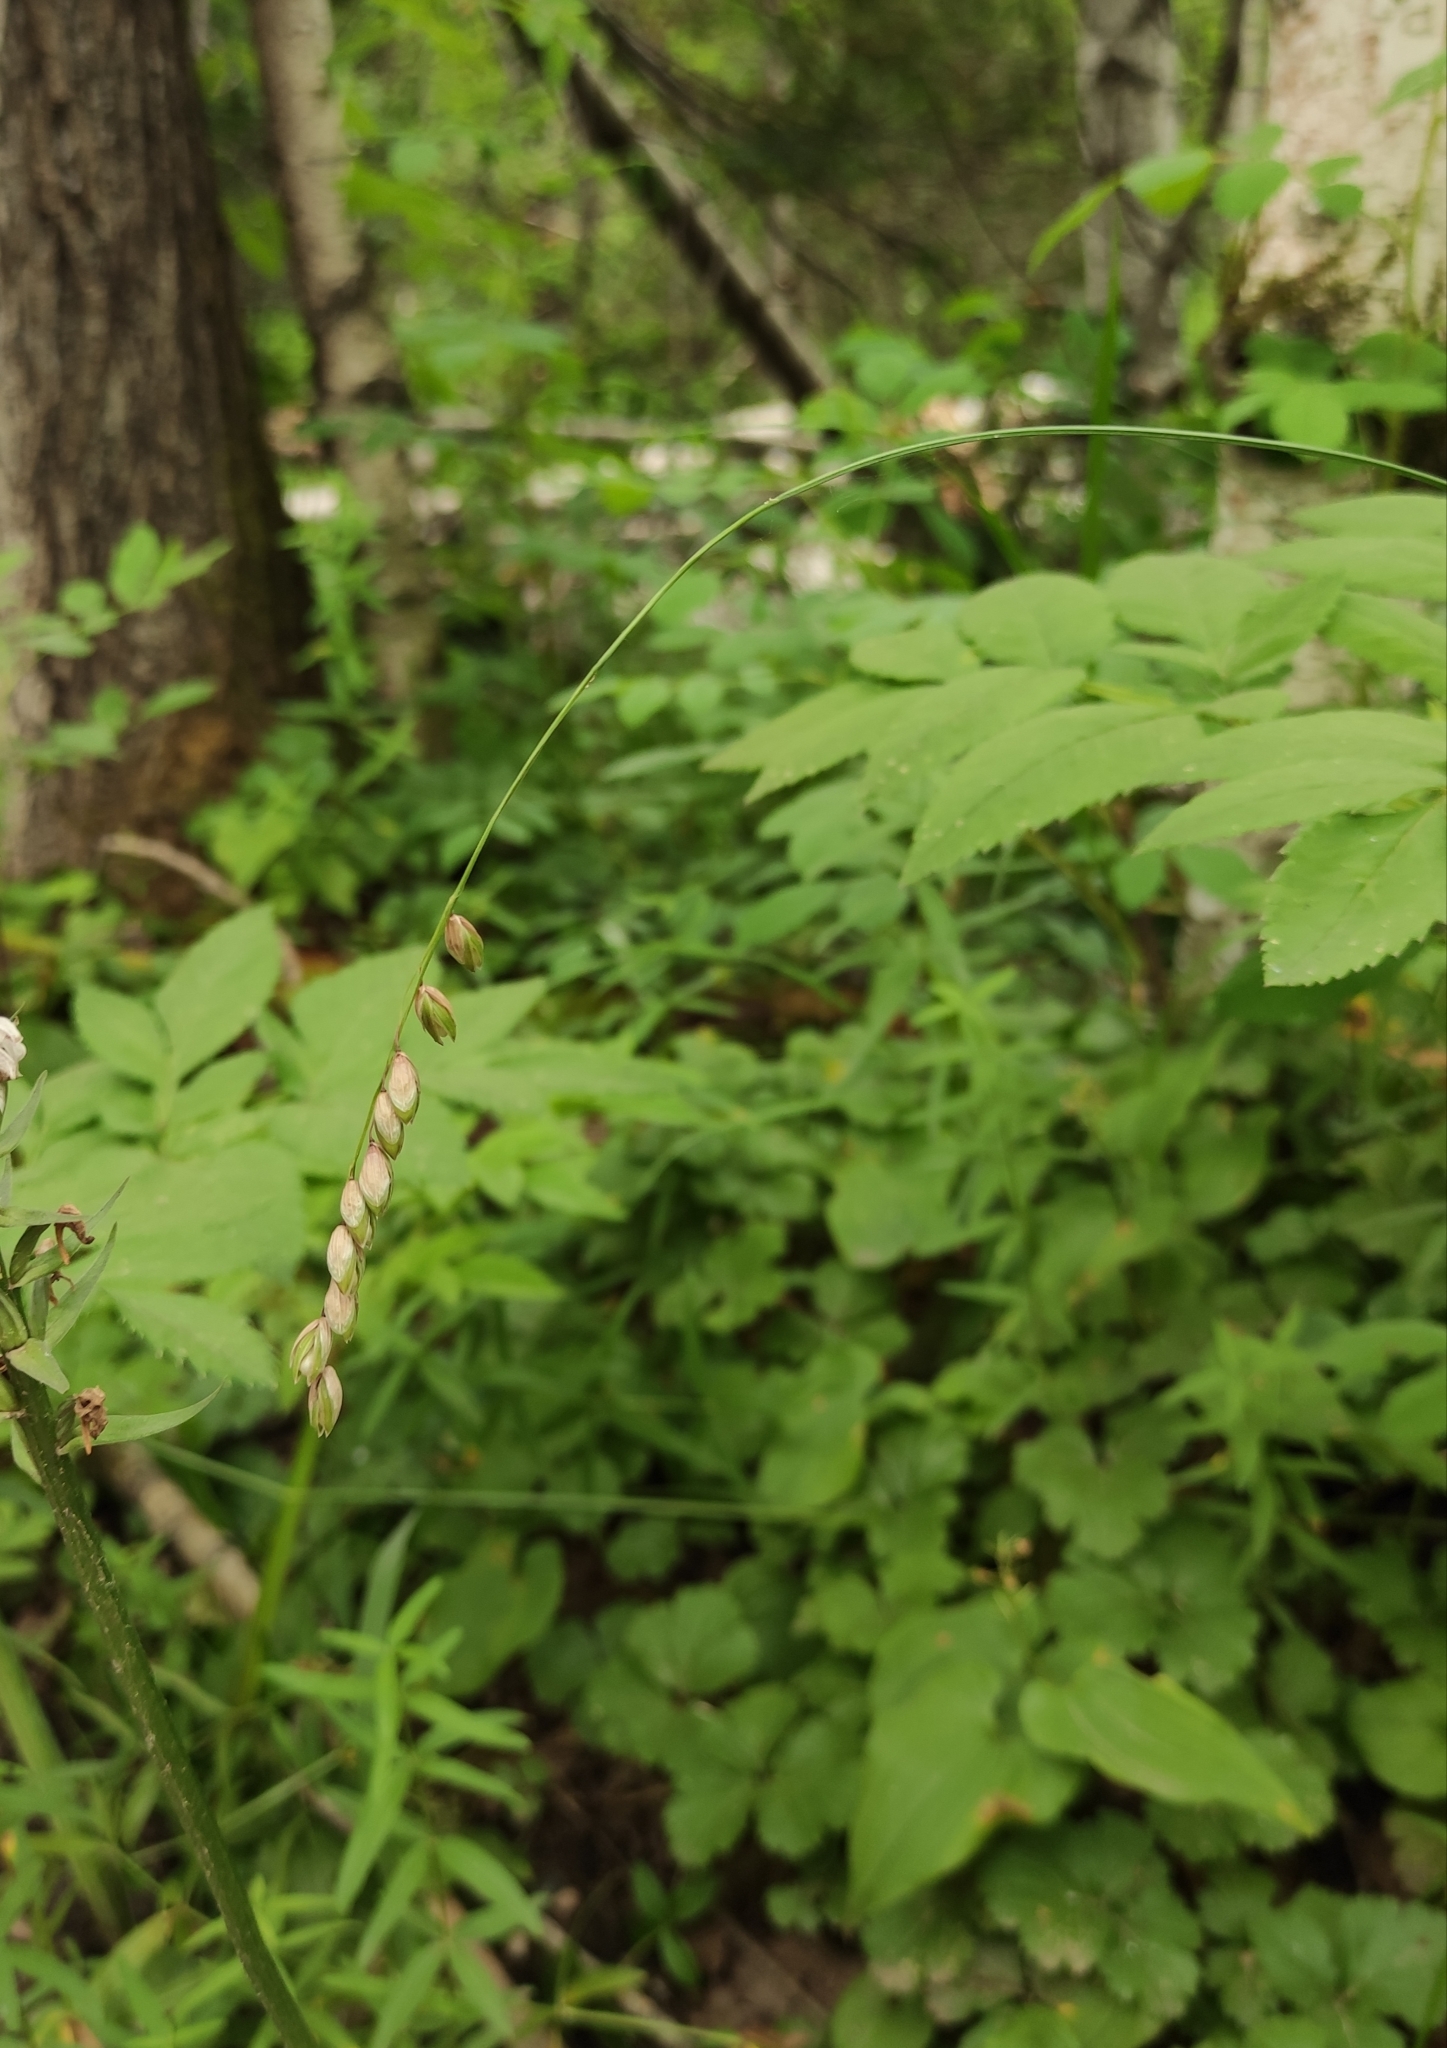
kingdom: Plantae
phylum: Tracheophyta
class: Liliopsida
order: Poales
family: Poaceae
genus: Melica
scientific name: Melica nutans
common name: Mountain melick
